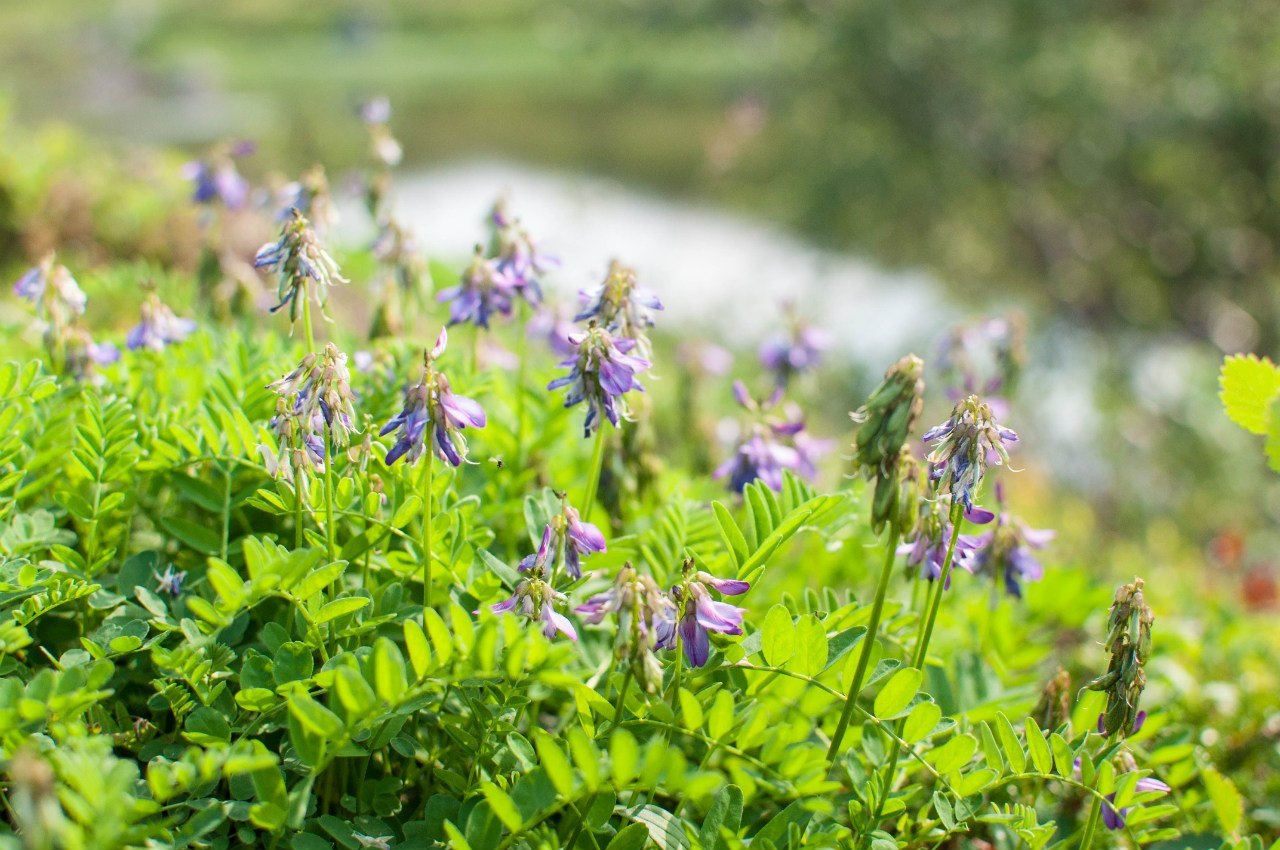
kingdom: Plantae
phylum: Tracheophyta
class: Magnoliopsida
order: Fabales
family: Fabaceae
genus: Astragalus
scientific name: Astragalus alpinus
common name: Alpine milk-vetch
